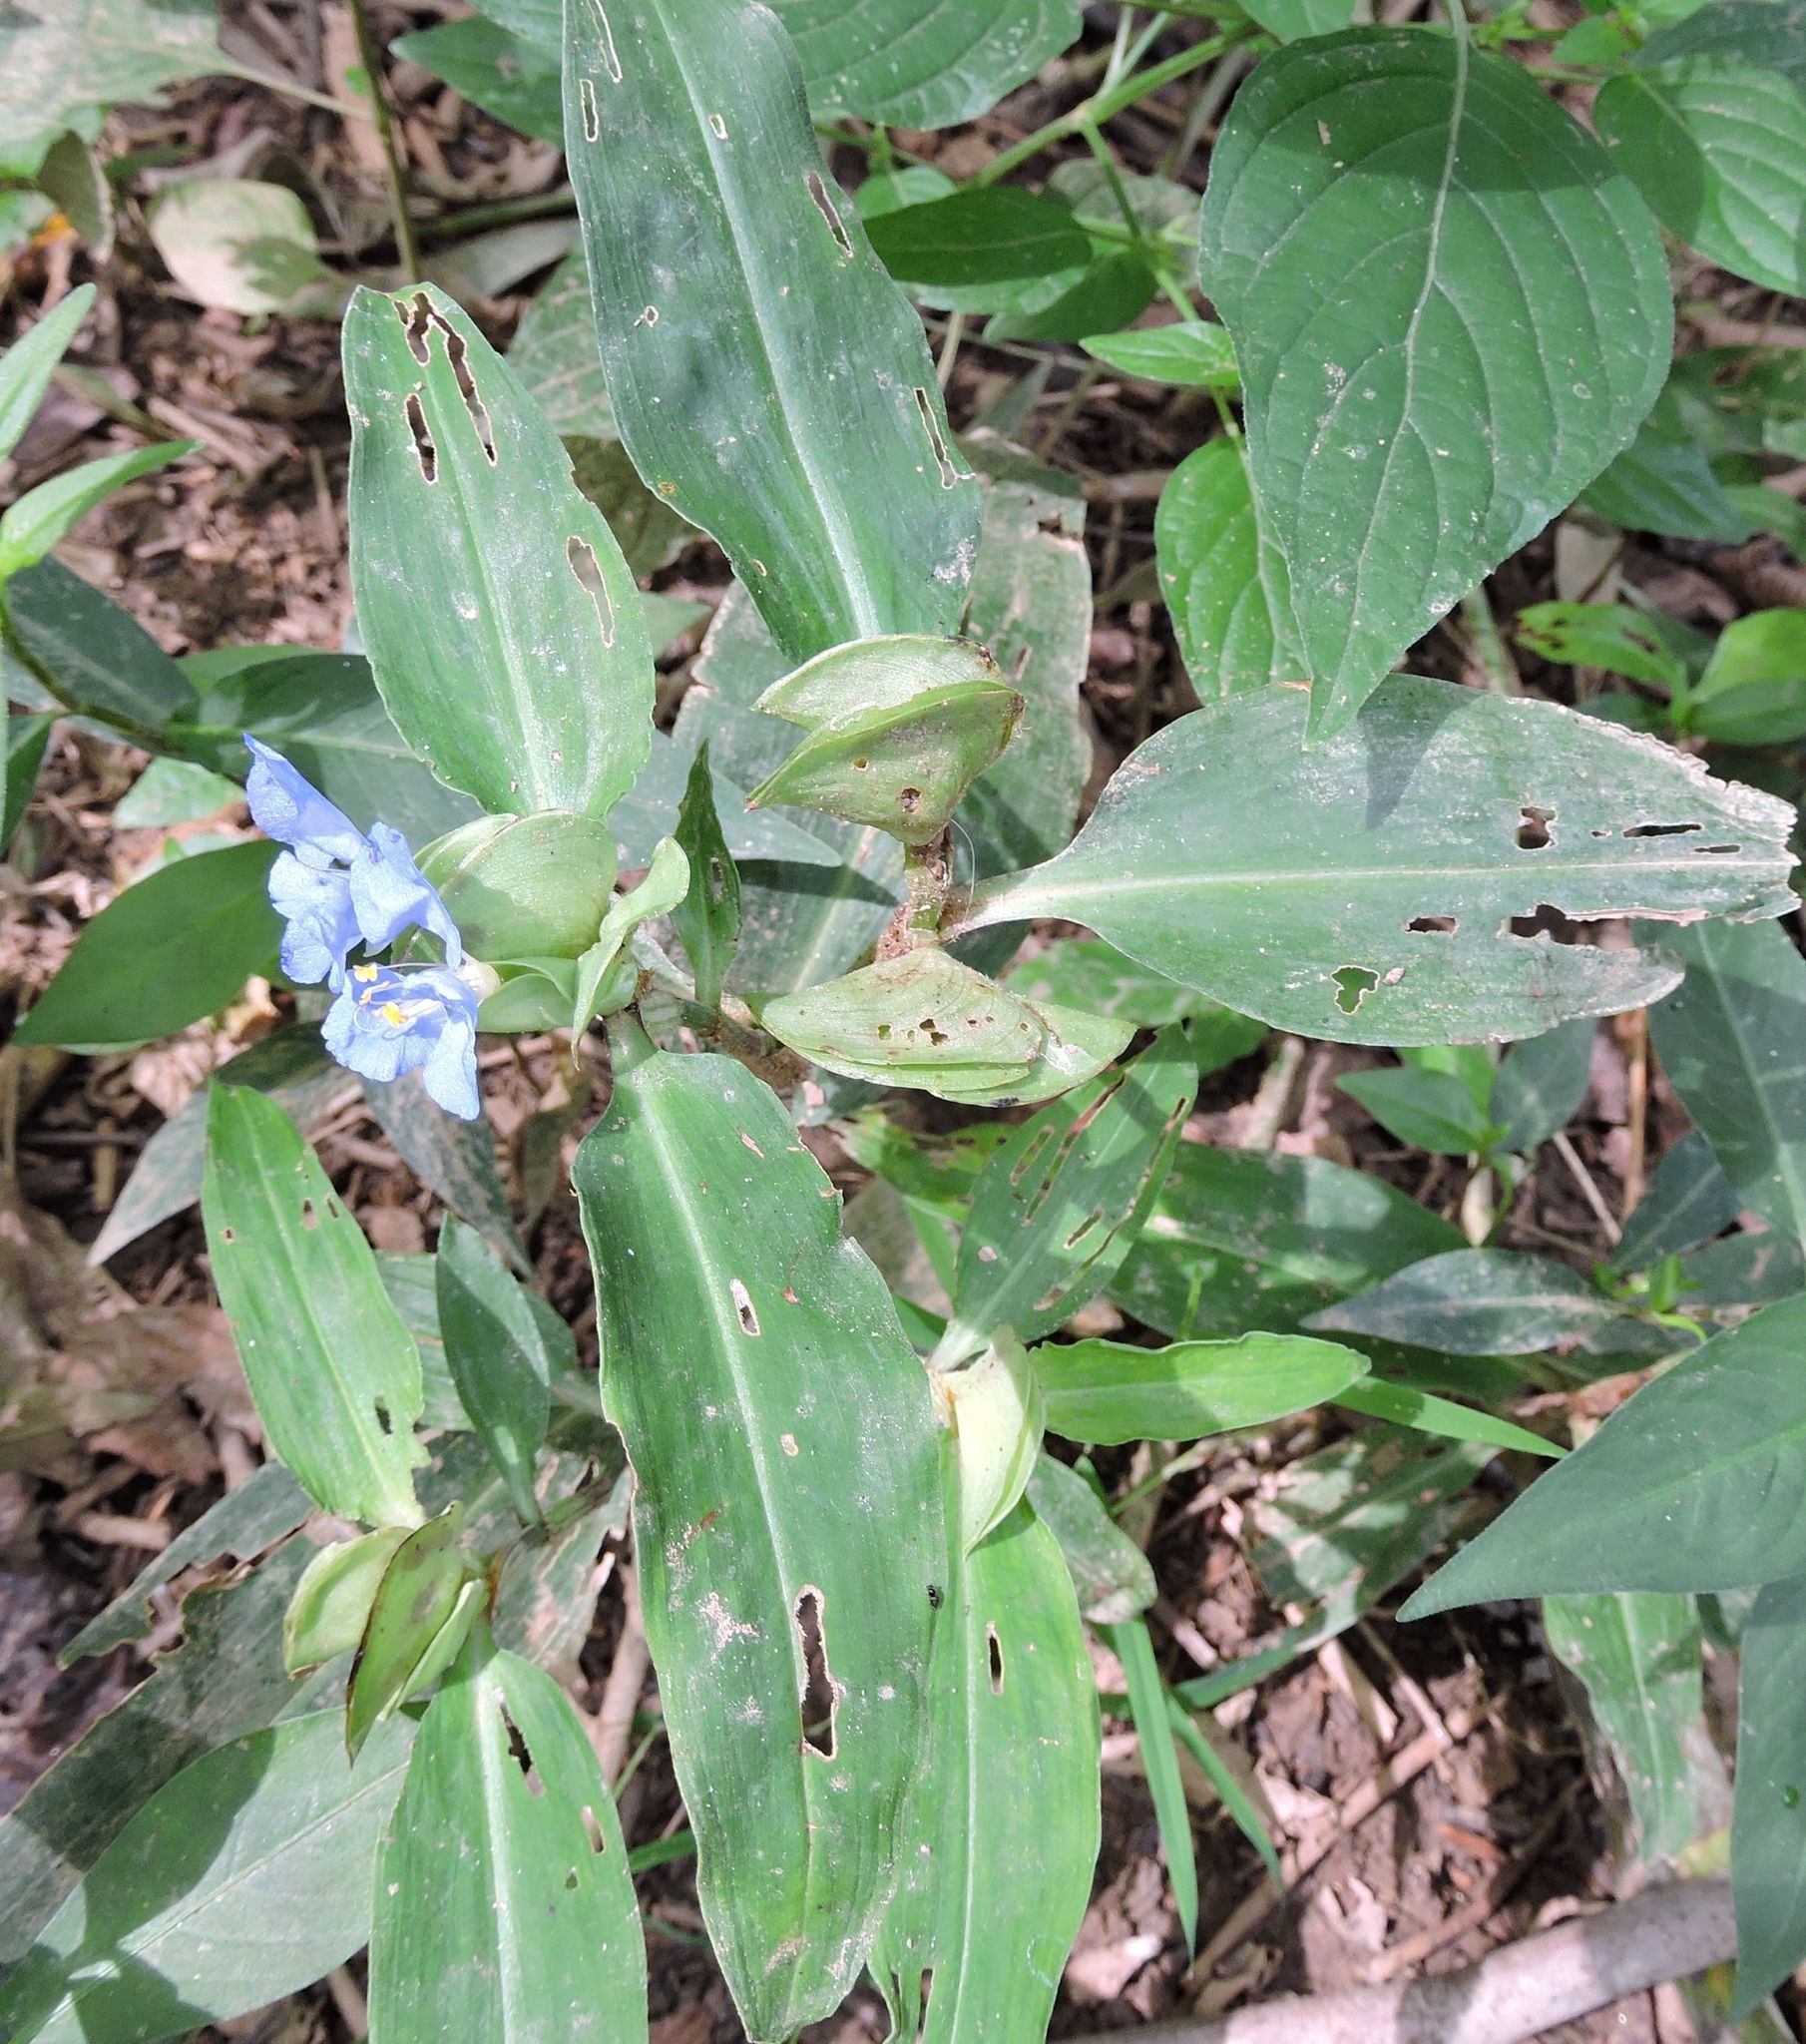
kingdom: Plantae
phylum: Tracheophyta
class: Liliopsida
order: Commelinales
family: Commelinaceae
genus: Commelina
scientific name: Commelina virginica
